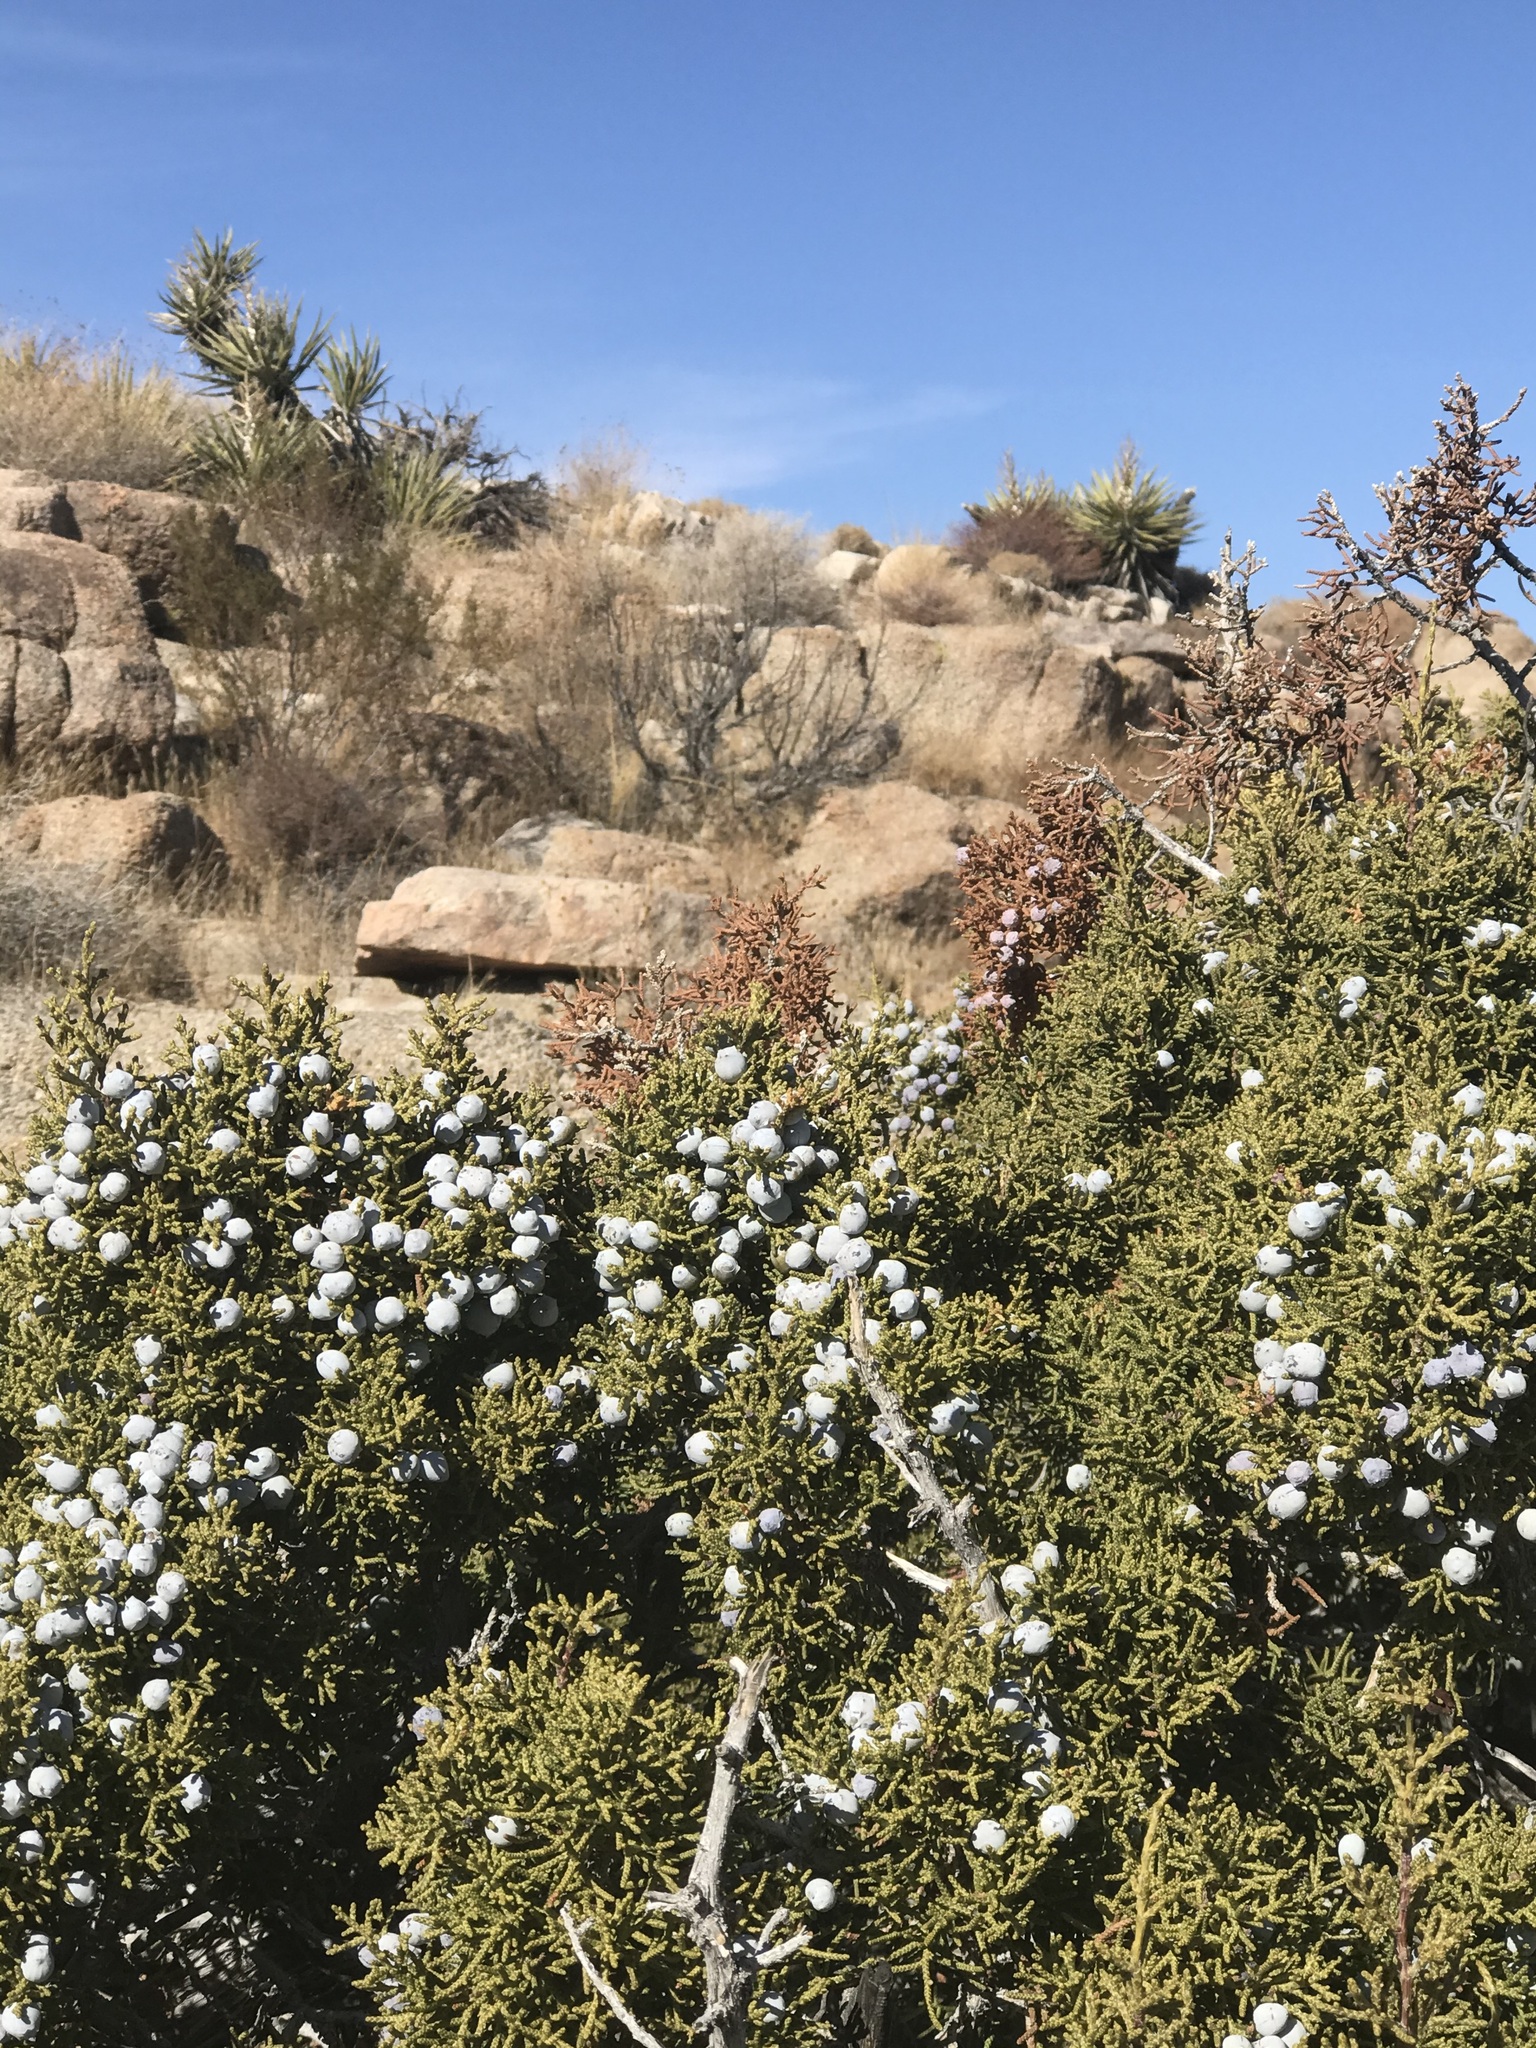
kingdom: Plantae
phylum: Tracheophyta
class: Pinopsida
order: Pinales
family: Cupressaceae
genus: Juniperus
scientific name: Juniperus californica
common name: California juniper
